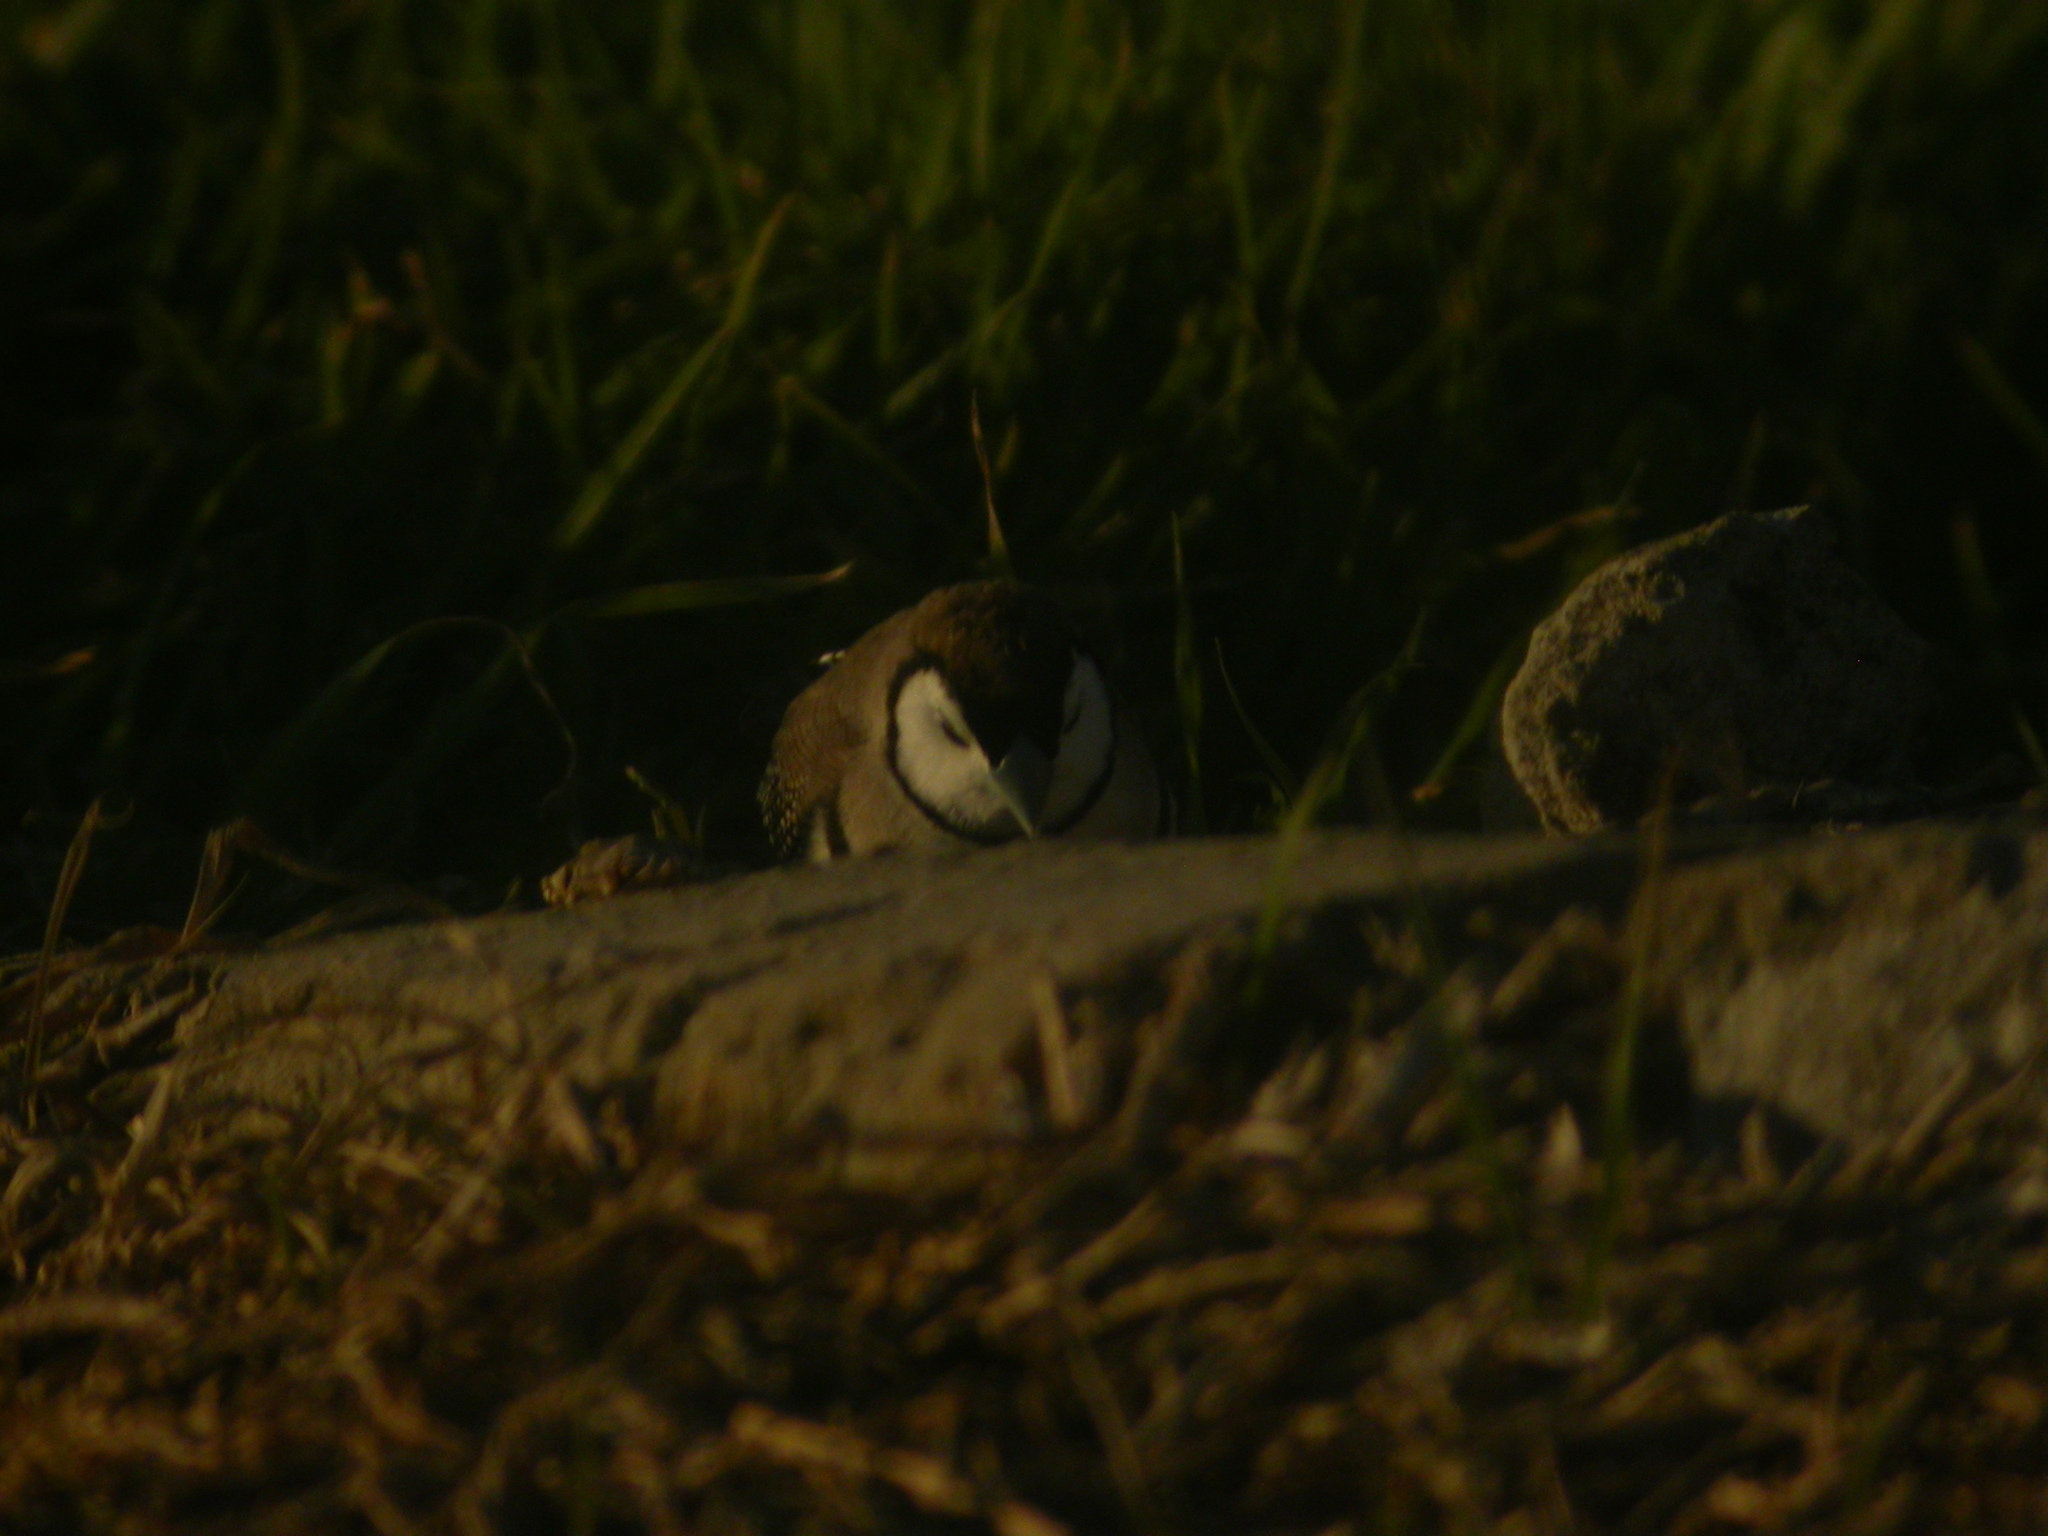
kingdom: Animalia
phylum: Chordata
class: Aves
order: Passeriformes
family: Estrildidae
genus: Taeniopygia
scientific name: Taeniopygia bichenovii
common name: Double-barred finch
